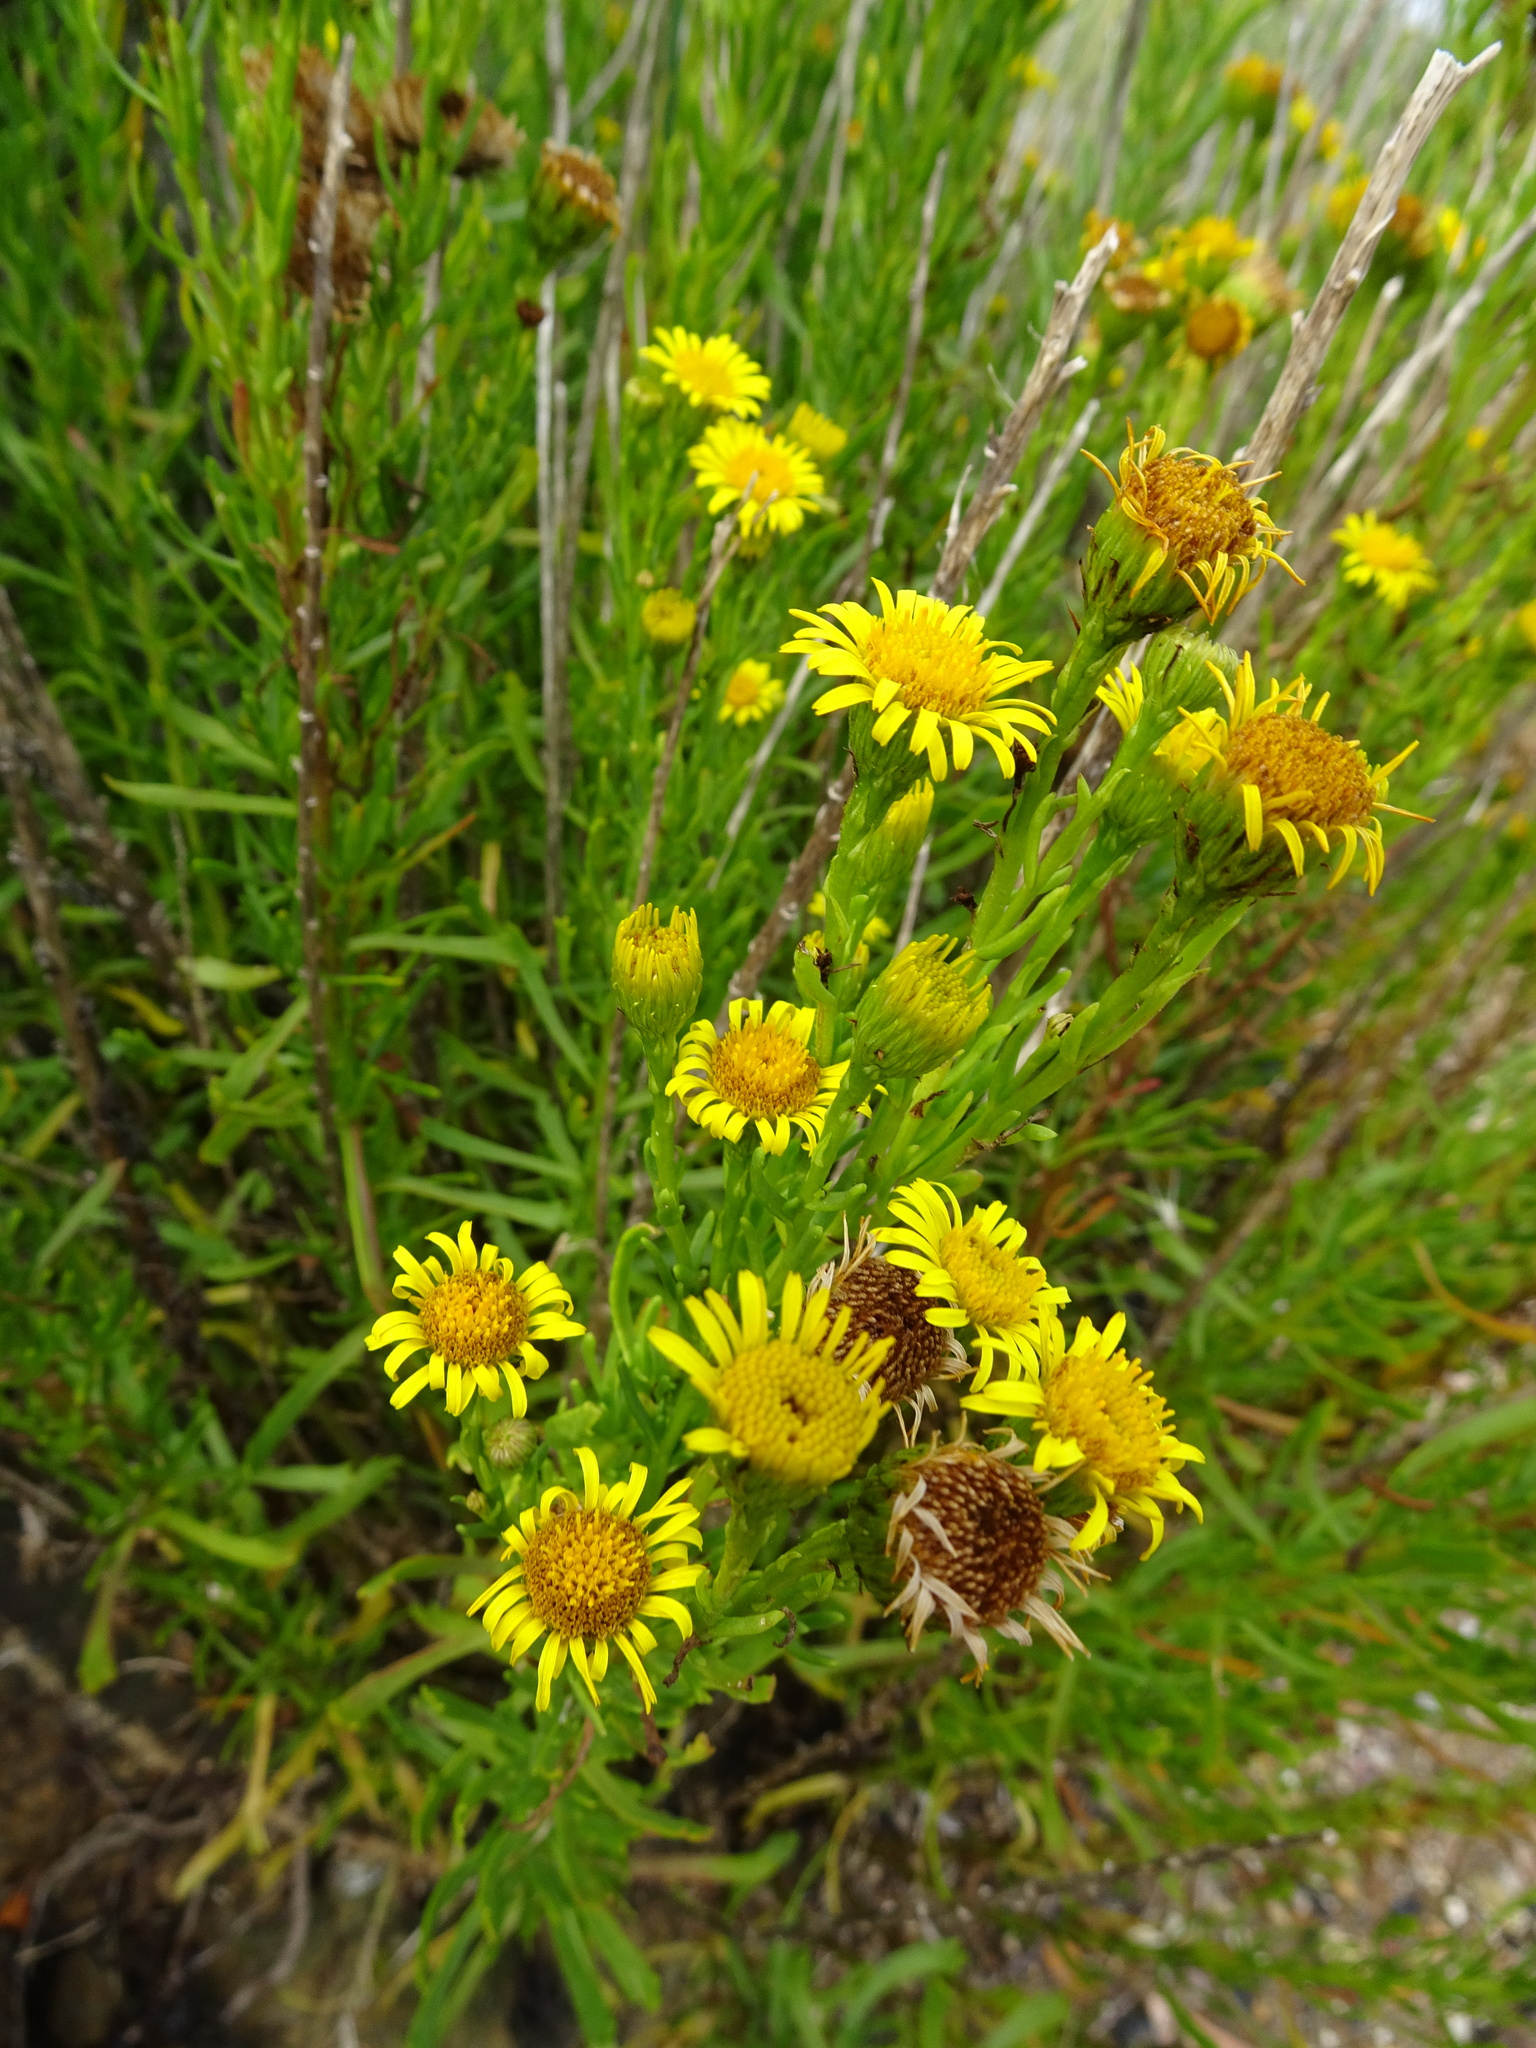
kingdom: Plantae
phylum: Tracheophyta
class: Magnoliopsida
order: Asterales
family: Asteraceae
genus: Limbarda
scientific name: Limbarda crithmoides
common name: Golden samphire
